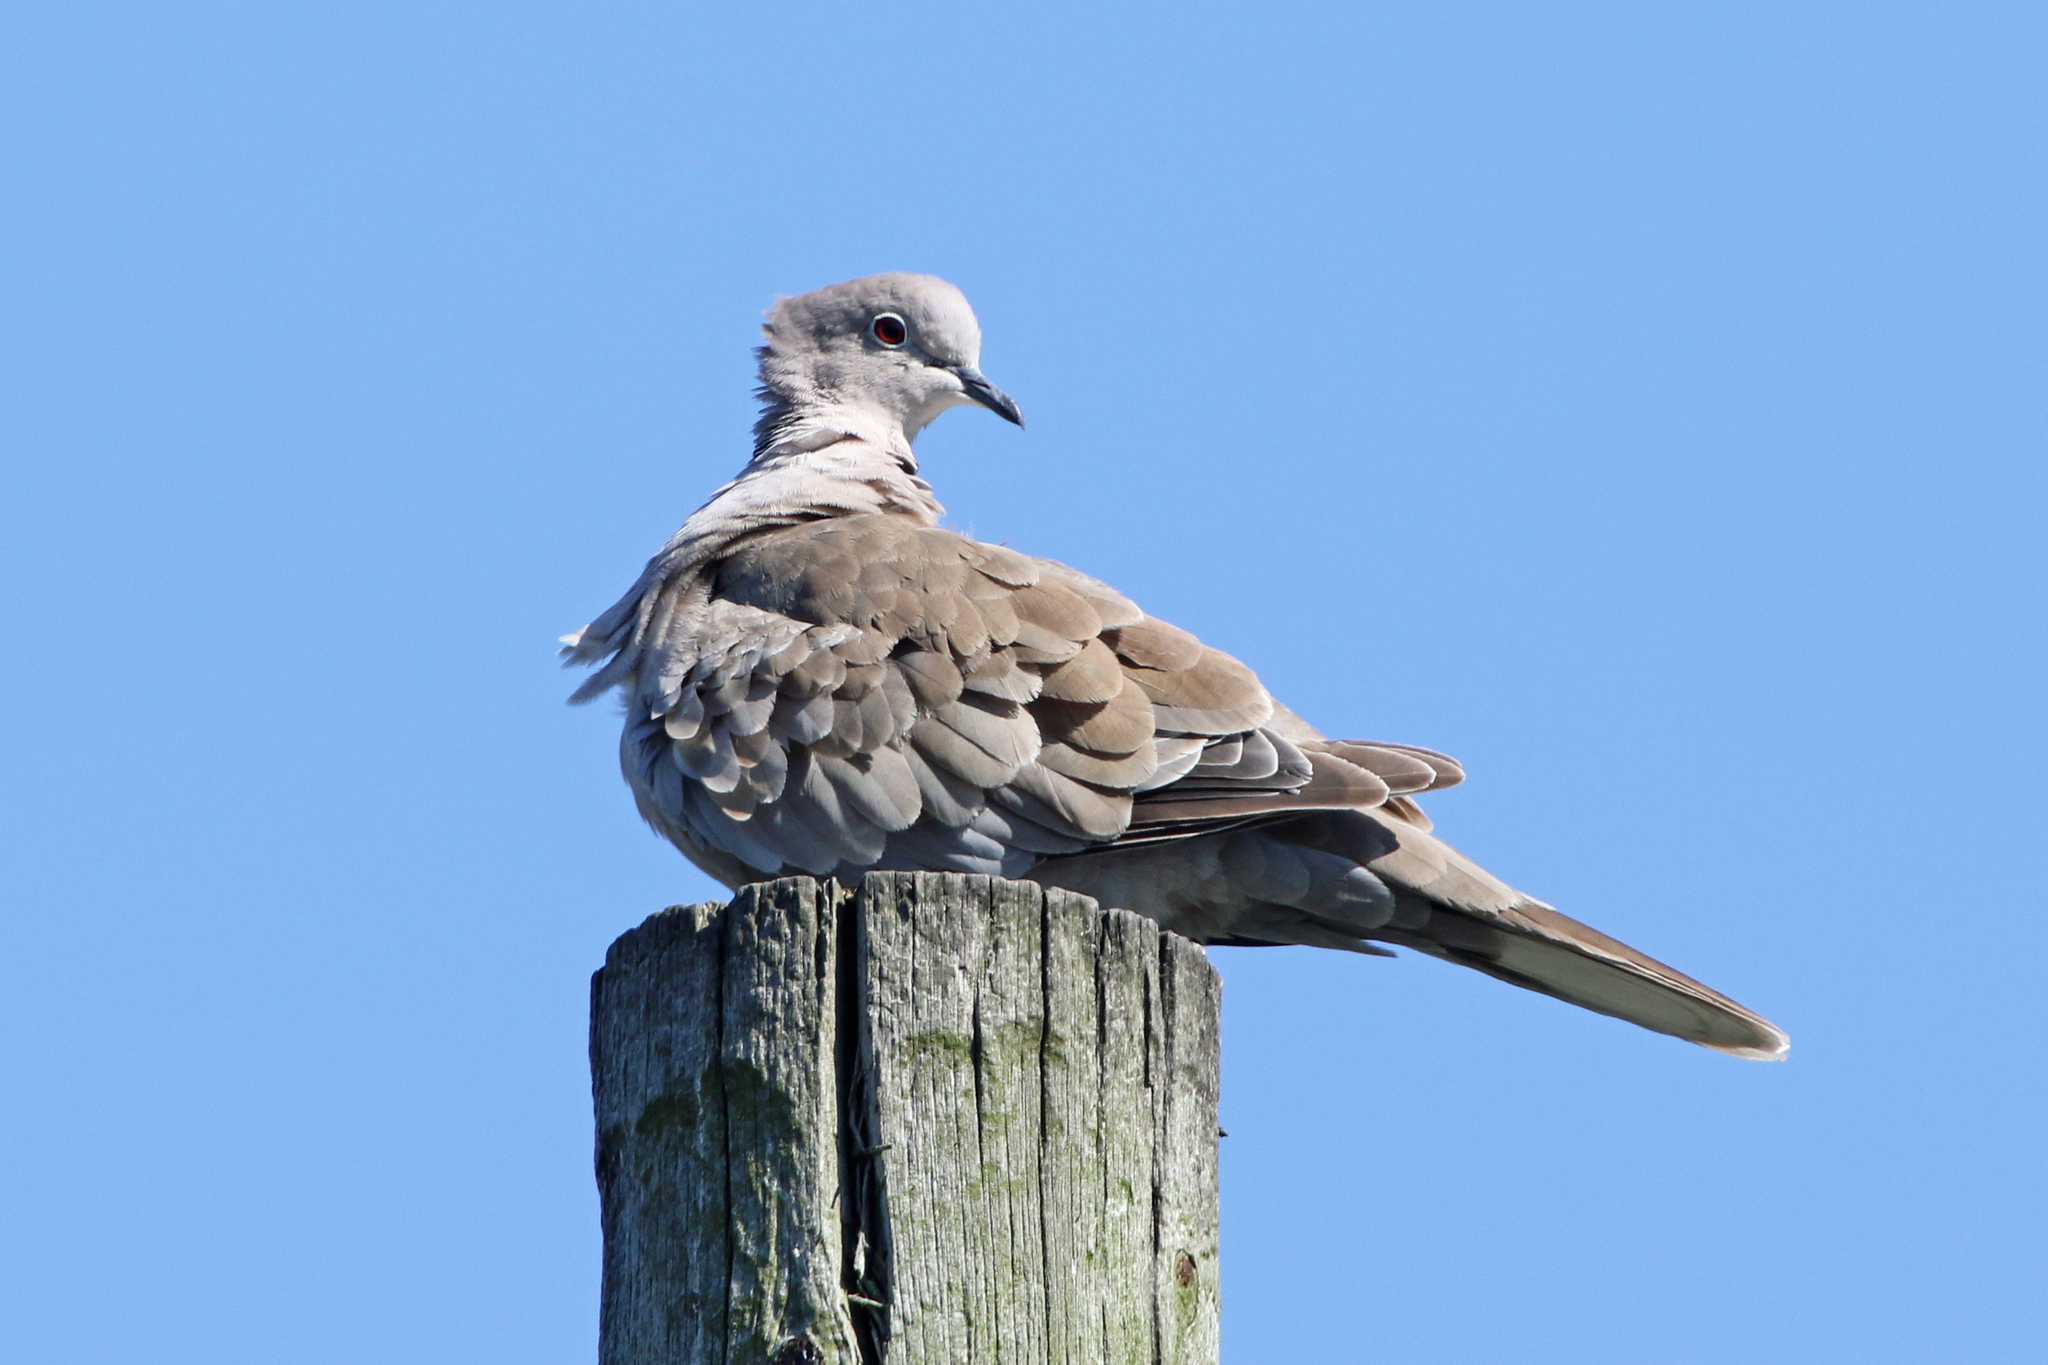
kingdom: Animalia
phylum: Chordata
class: Aves
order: Columbiformes
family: Columbidae
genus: Streptopelia
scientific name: Streptopelia decaocto
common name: Eurasian collared dove
